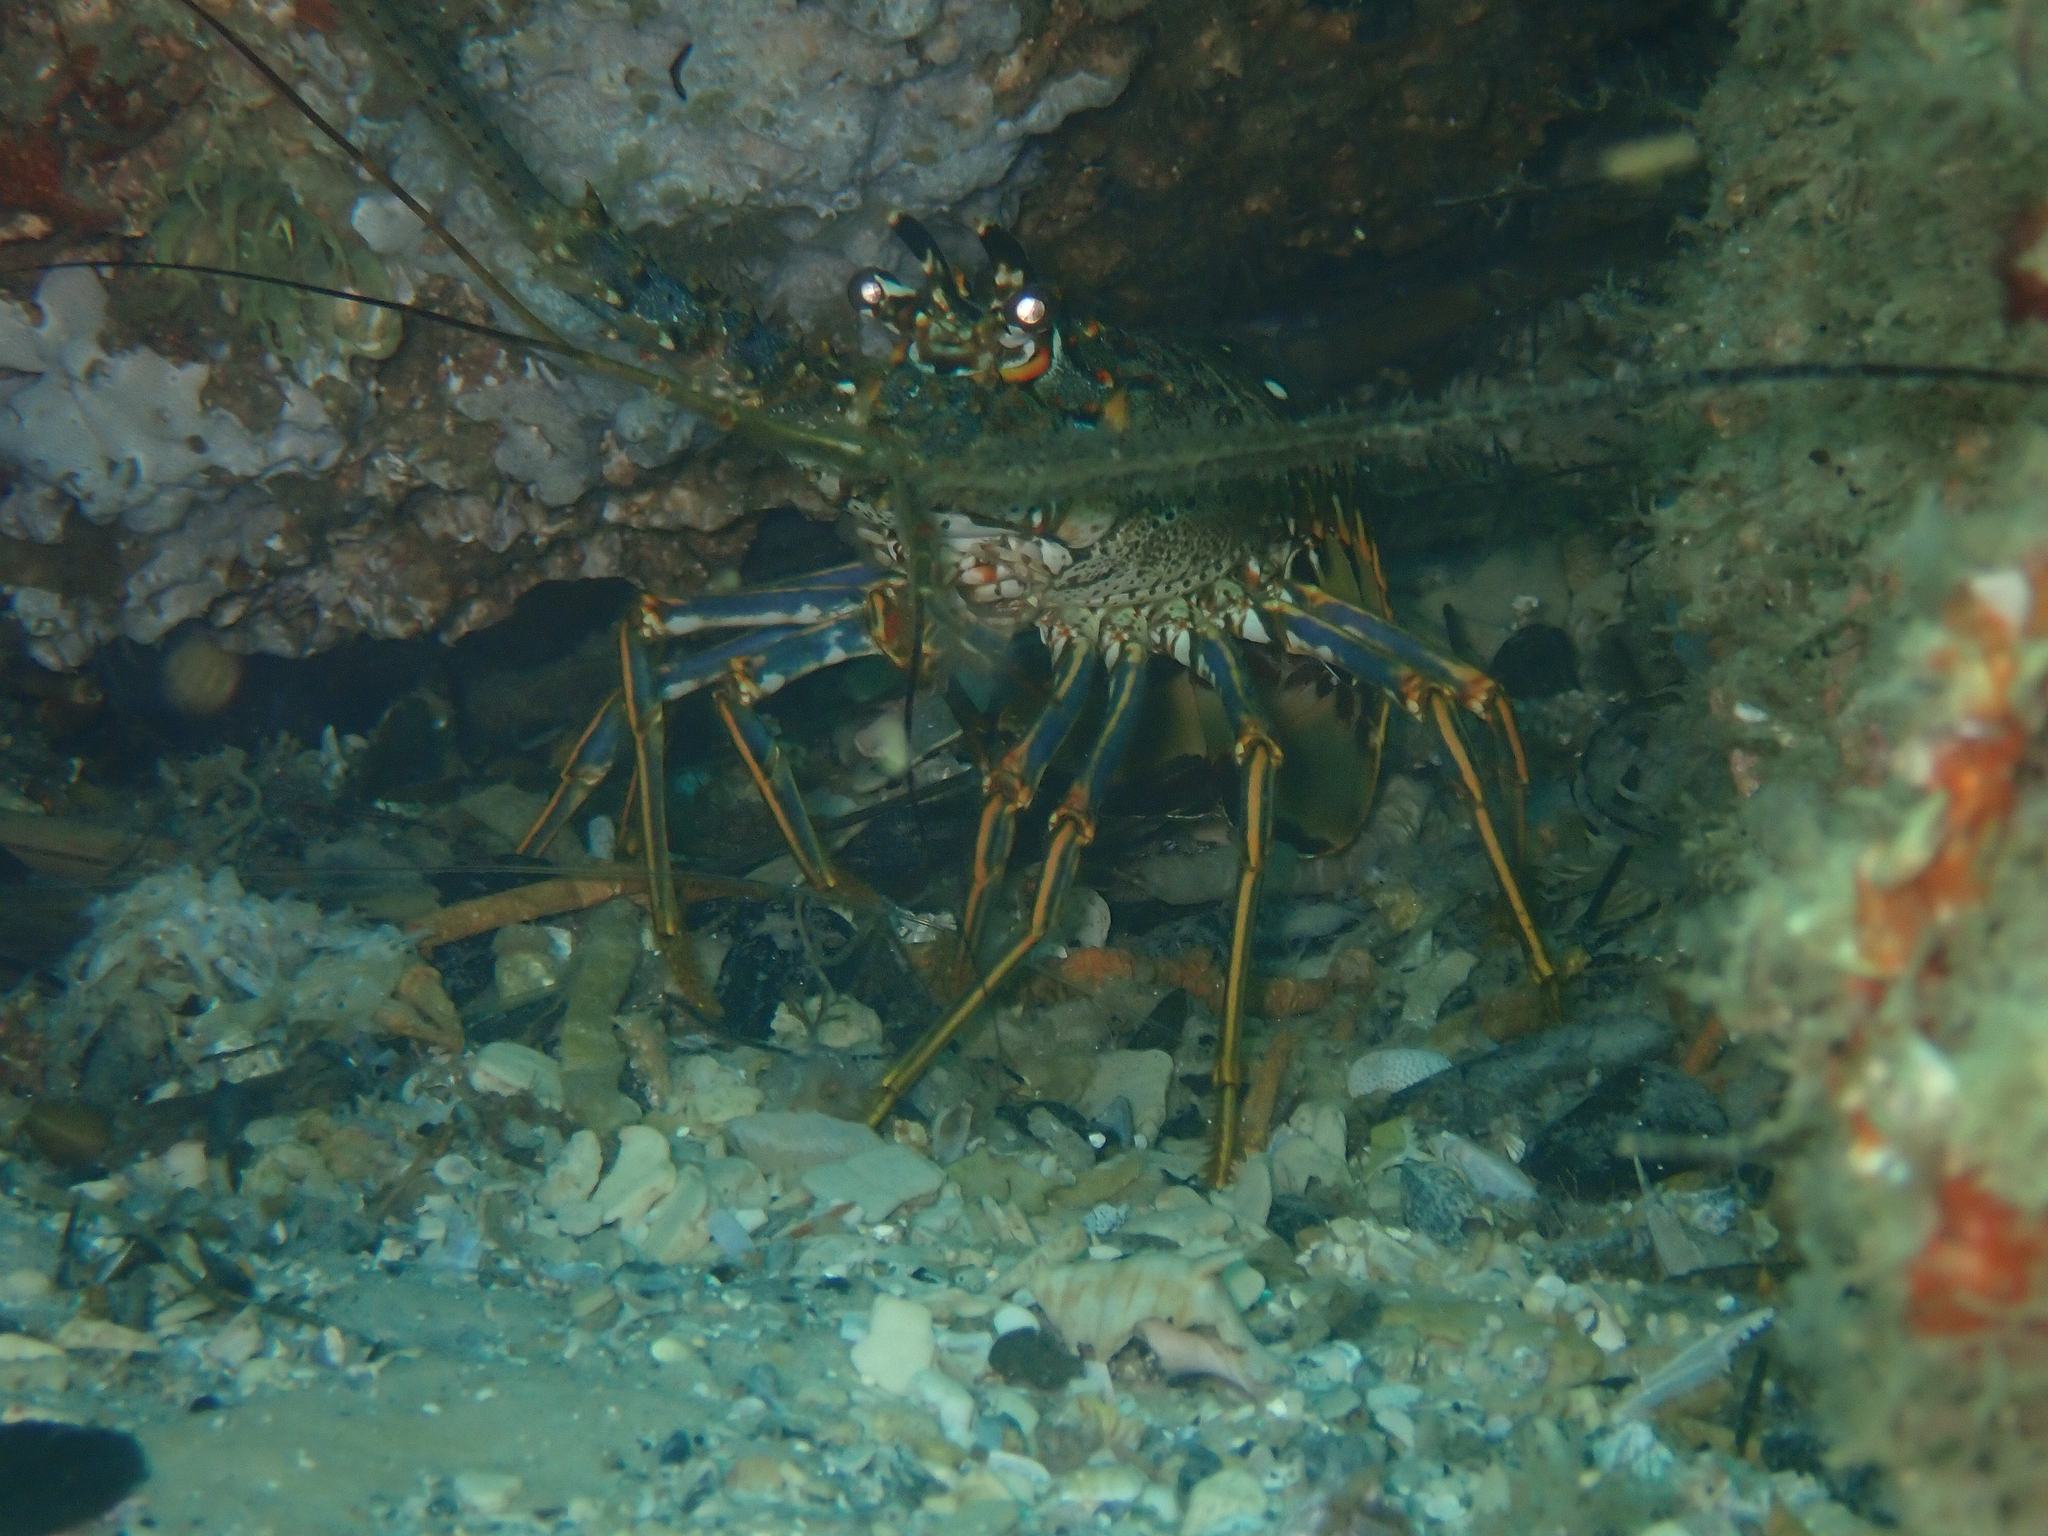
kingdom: Animalia
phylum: Arthropoda
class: Malacostraca
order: Decapoda
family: Palinuridae
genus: Panulirus
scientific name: Panulirus argus
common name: Caribbean spiny lobster
